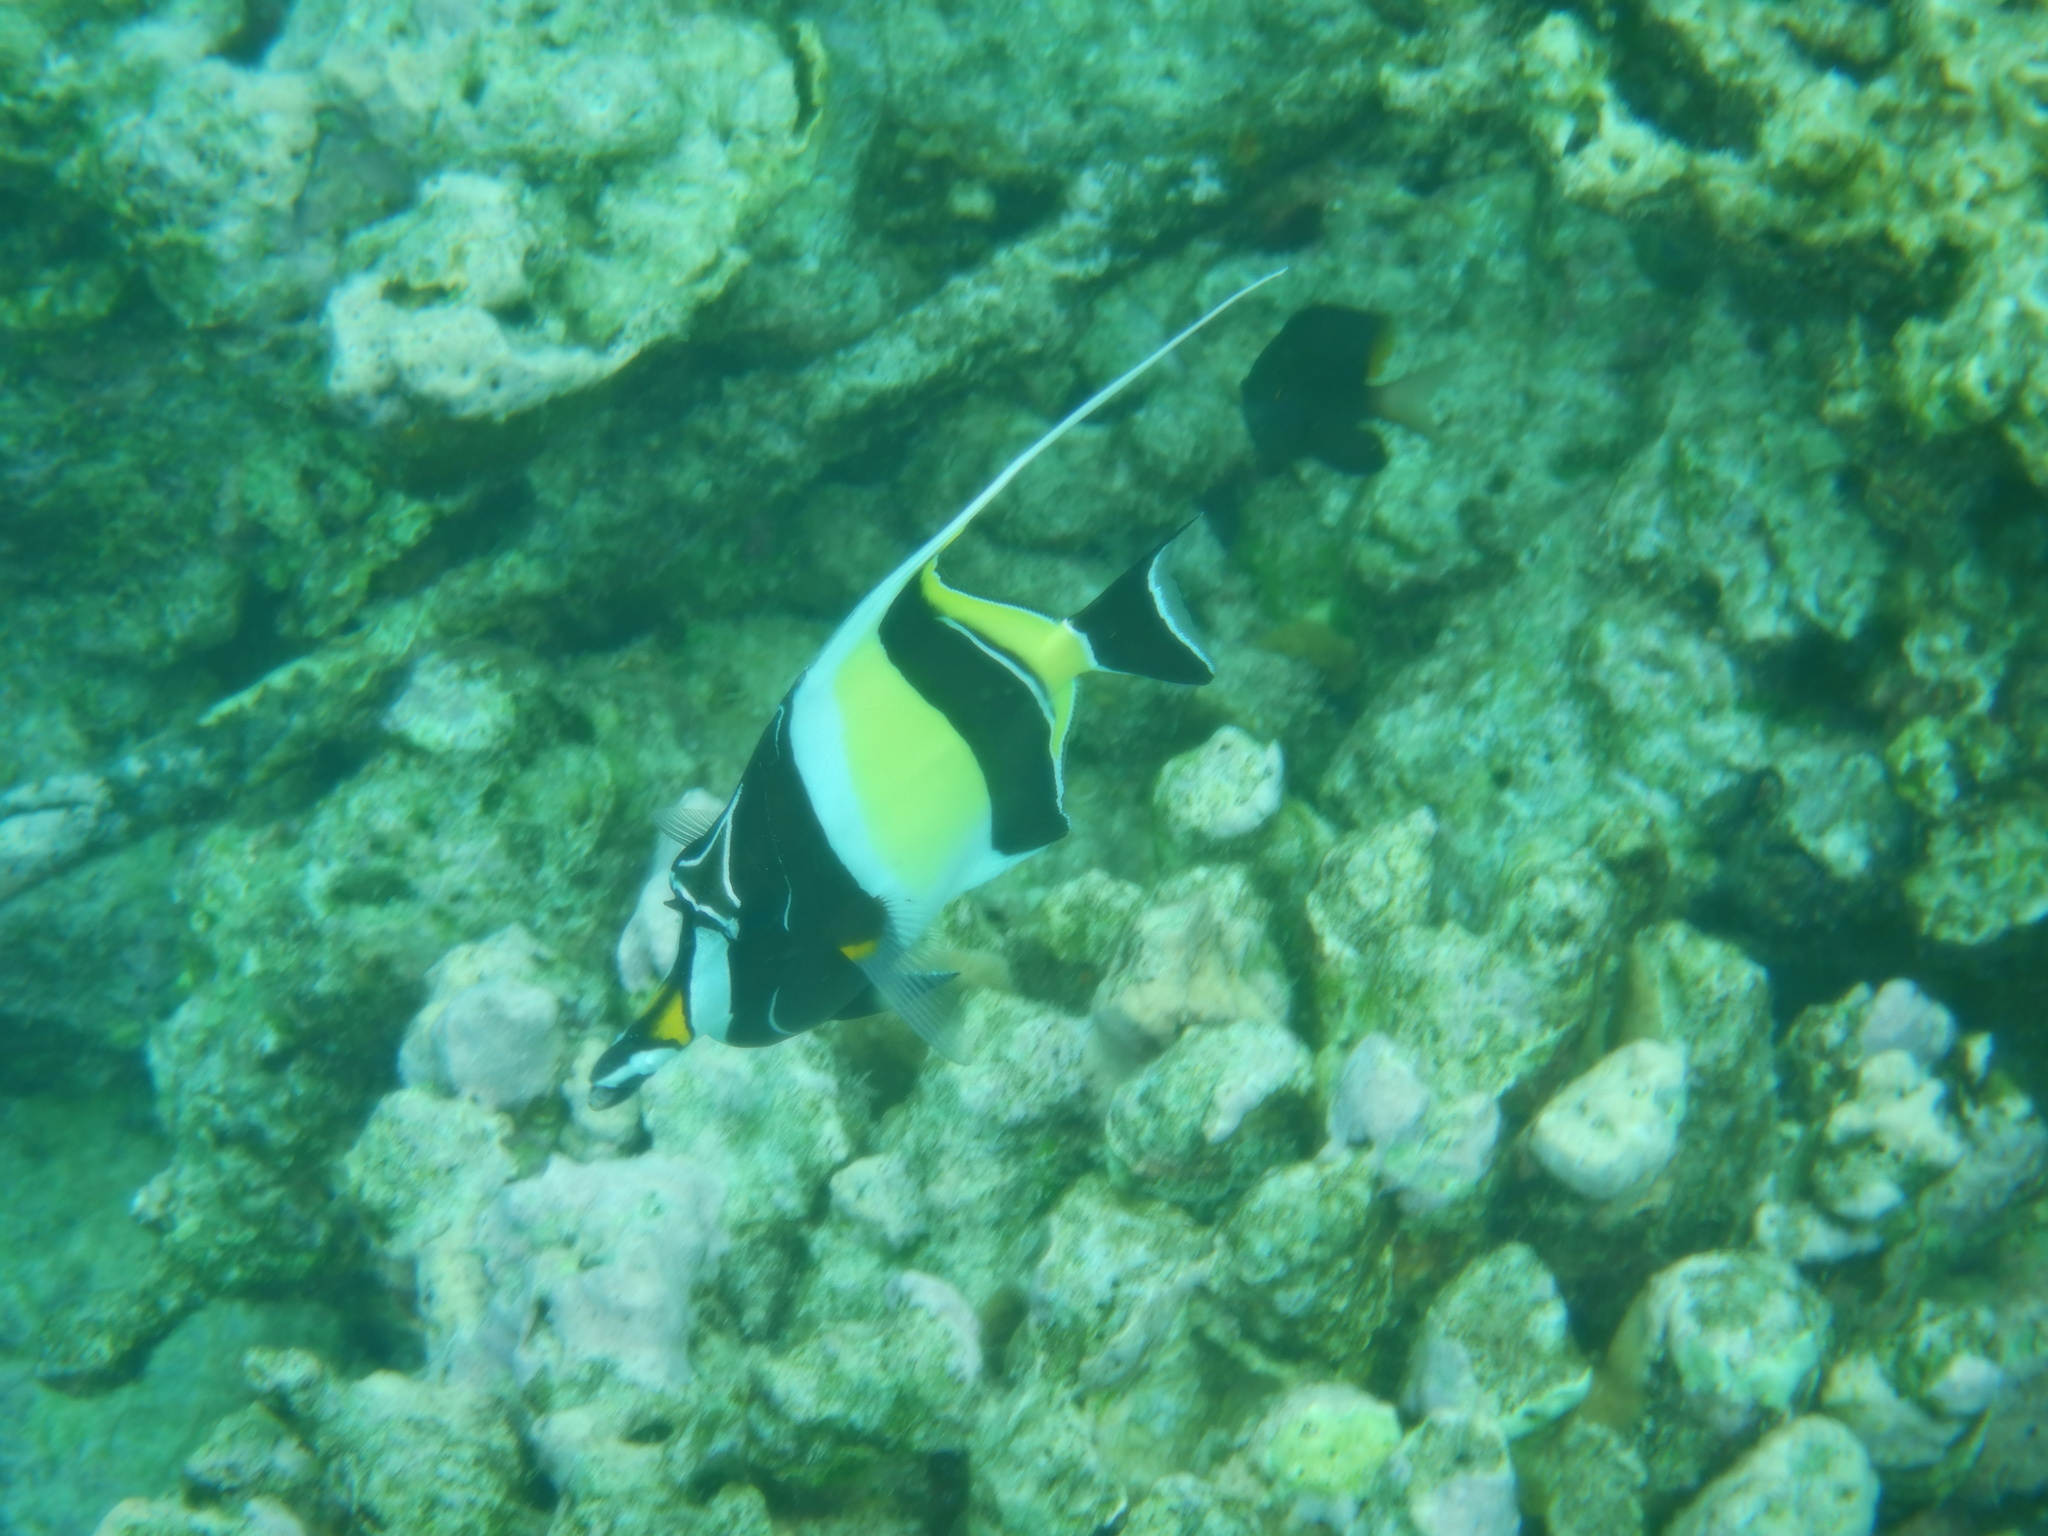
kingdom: Animalia
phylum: Chordata
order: Perciformes
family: Zanclidae
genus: Zanclus
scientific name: Zanclus cornutus
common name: Moorish idol
